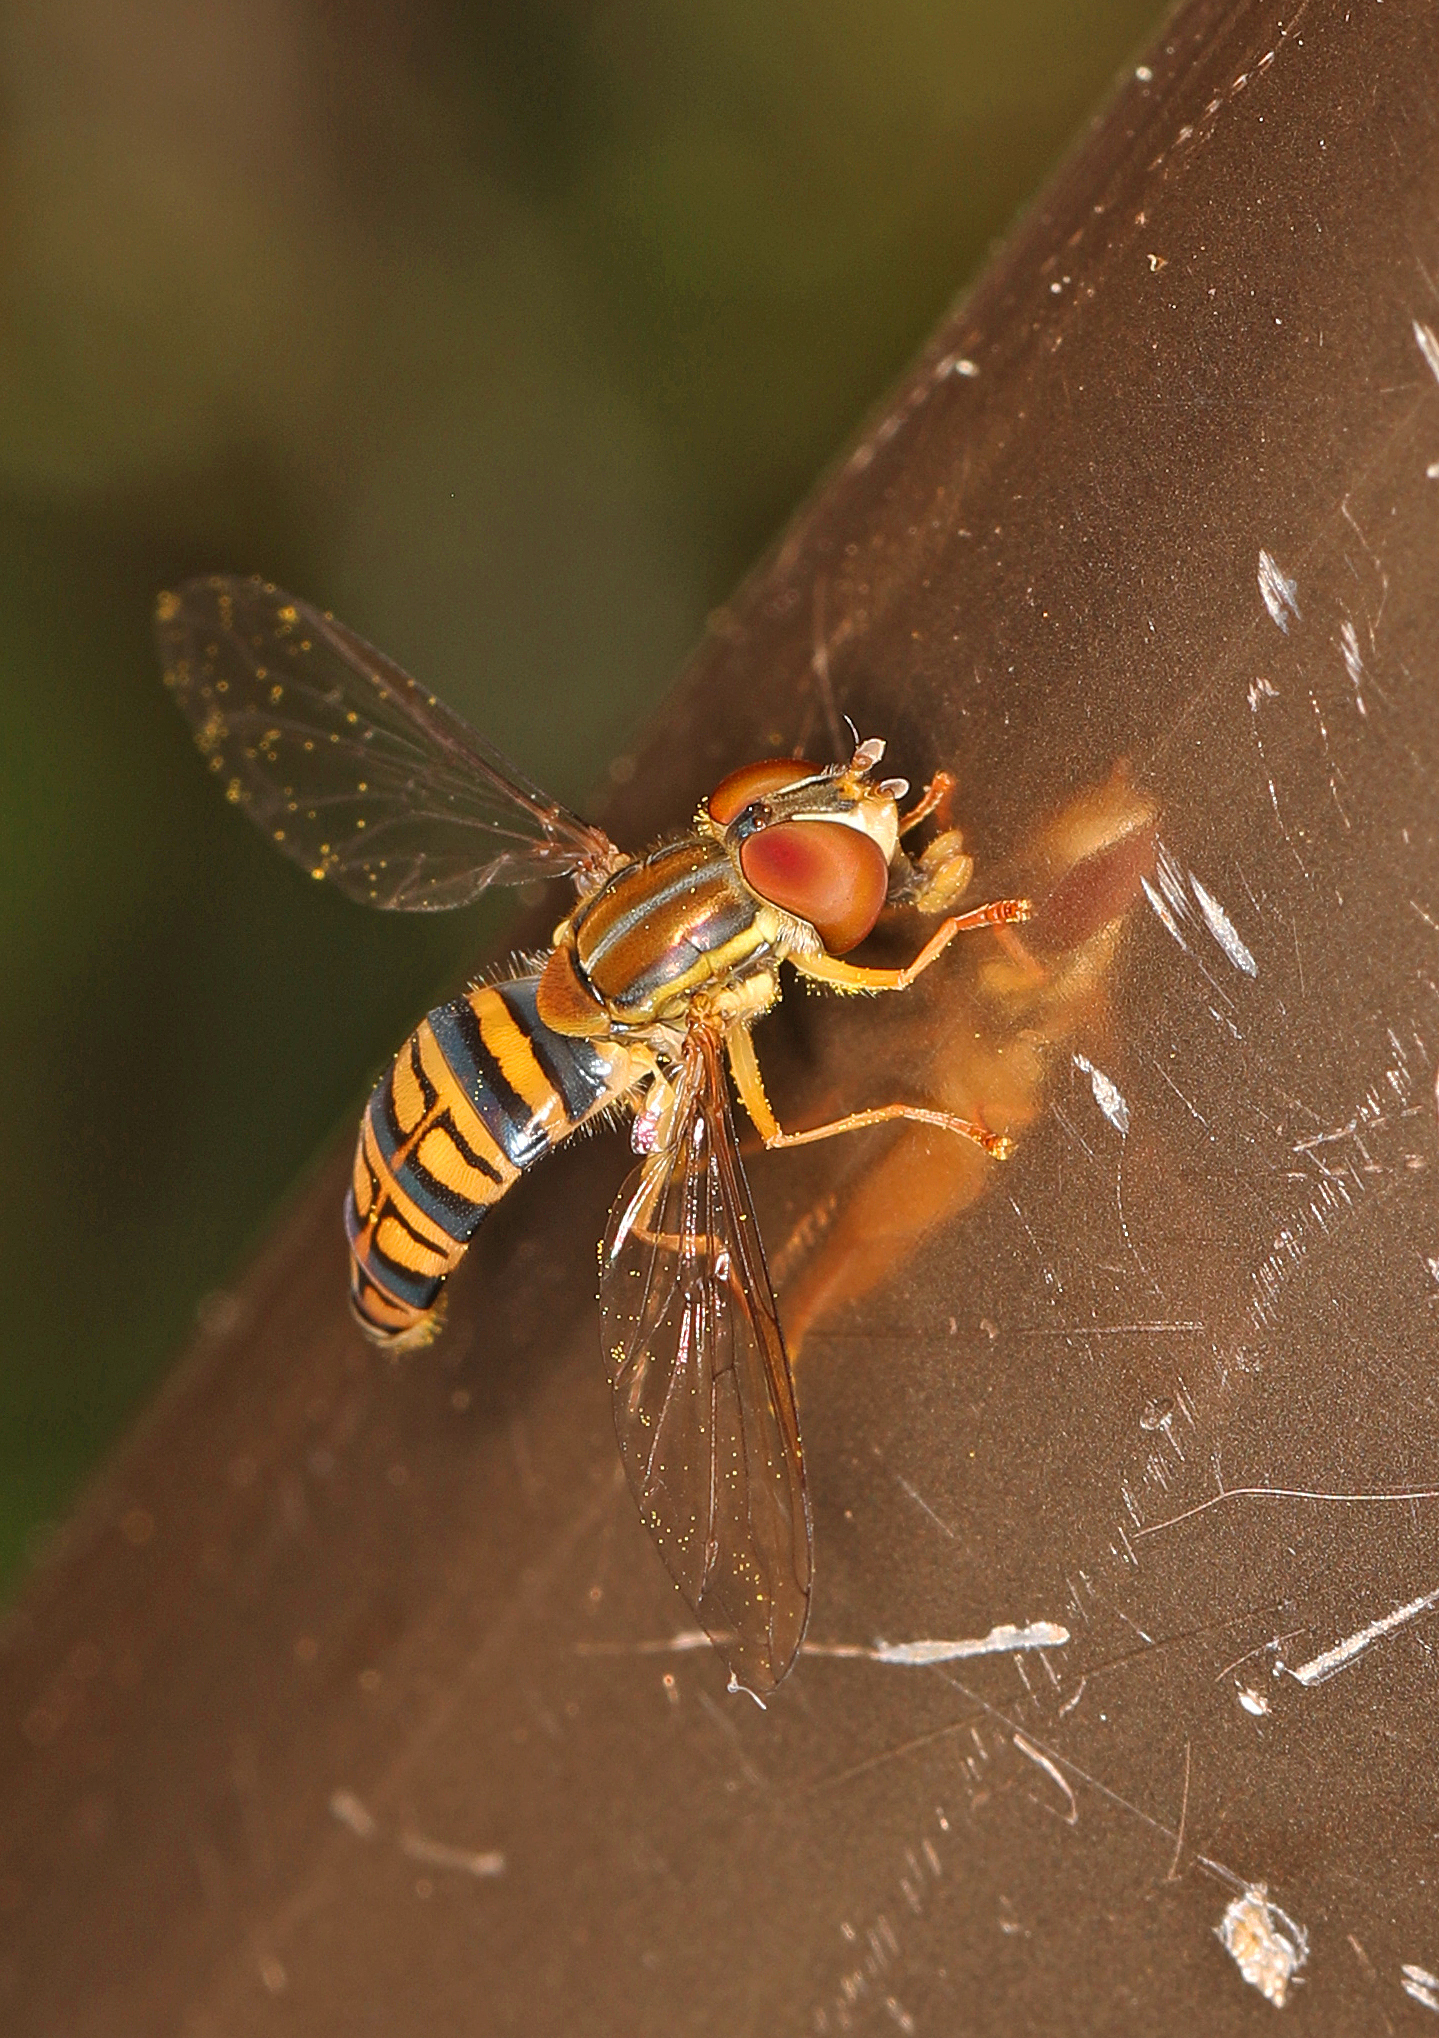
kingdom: Animalia
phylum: Arthropoda
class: Insecta
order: Diptera
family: Syrphidae
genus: Toxomerus
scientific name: Toxomerus politus
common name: Maize calligrapher
